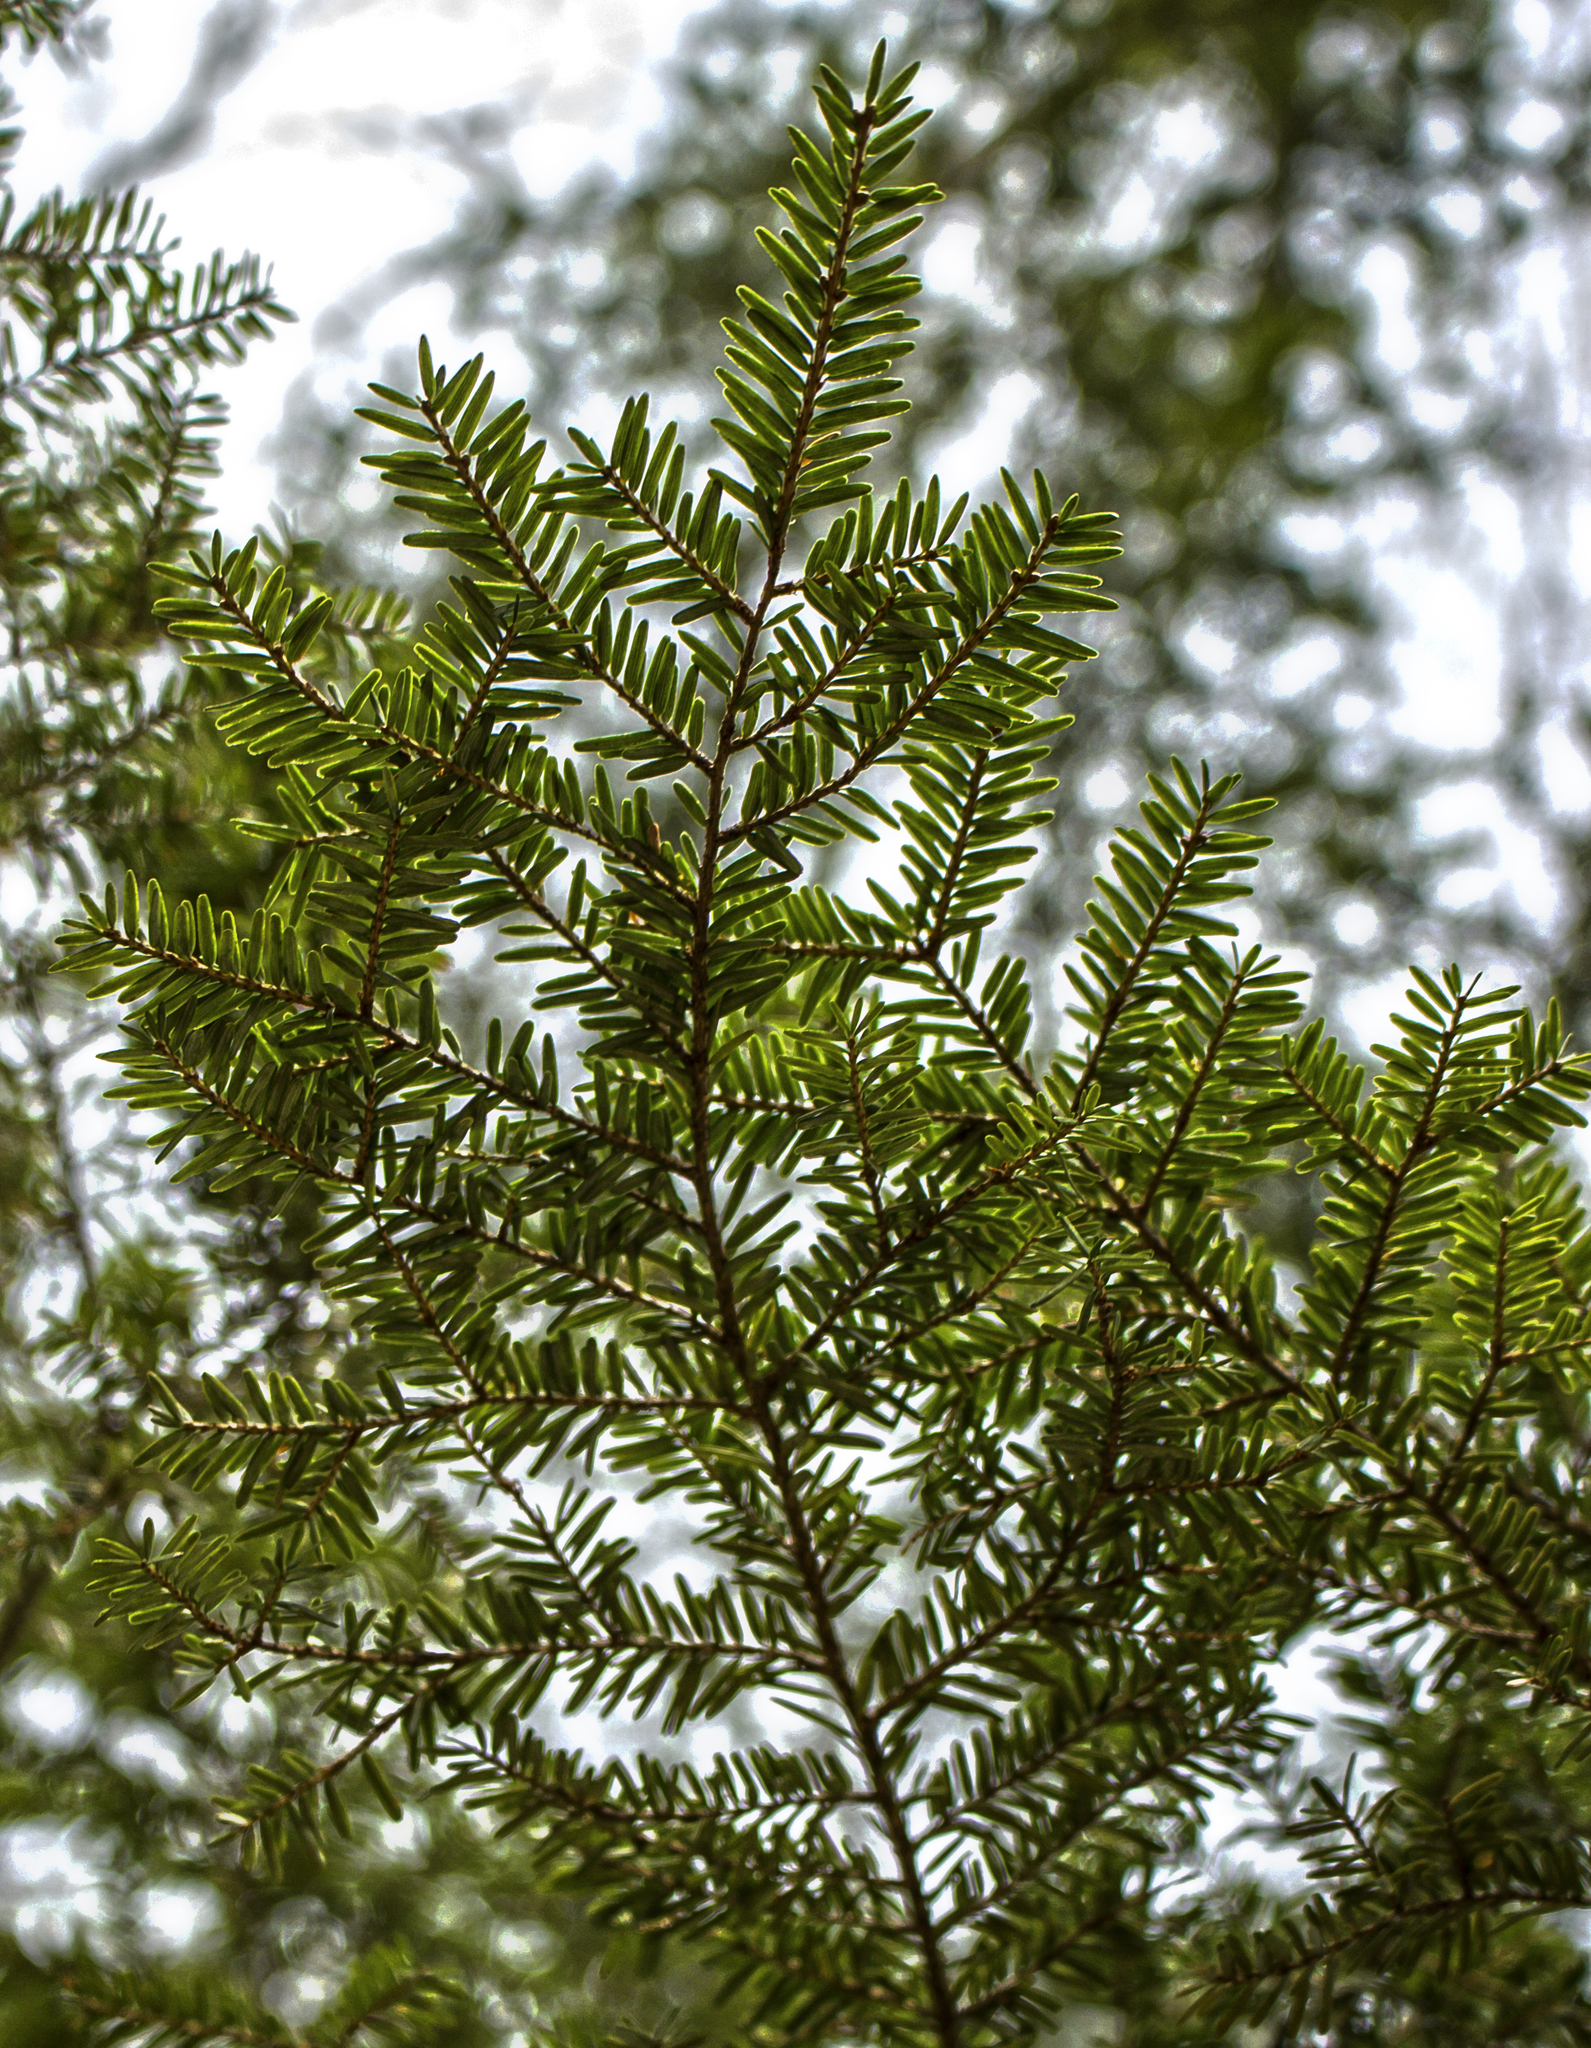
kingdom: Plantae
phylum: Tracheophyta
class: Pinopsida
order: Pinales
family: Pinaceae
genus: Tsuga
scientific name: Tsuga canadensis
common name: Eastern hemlock
